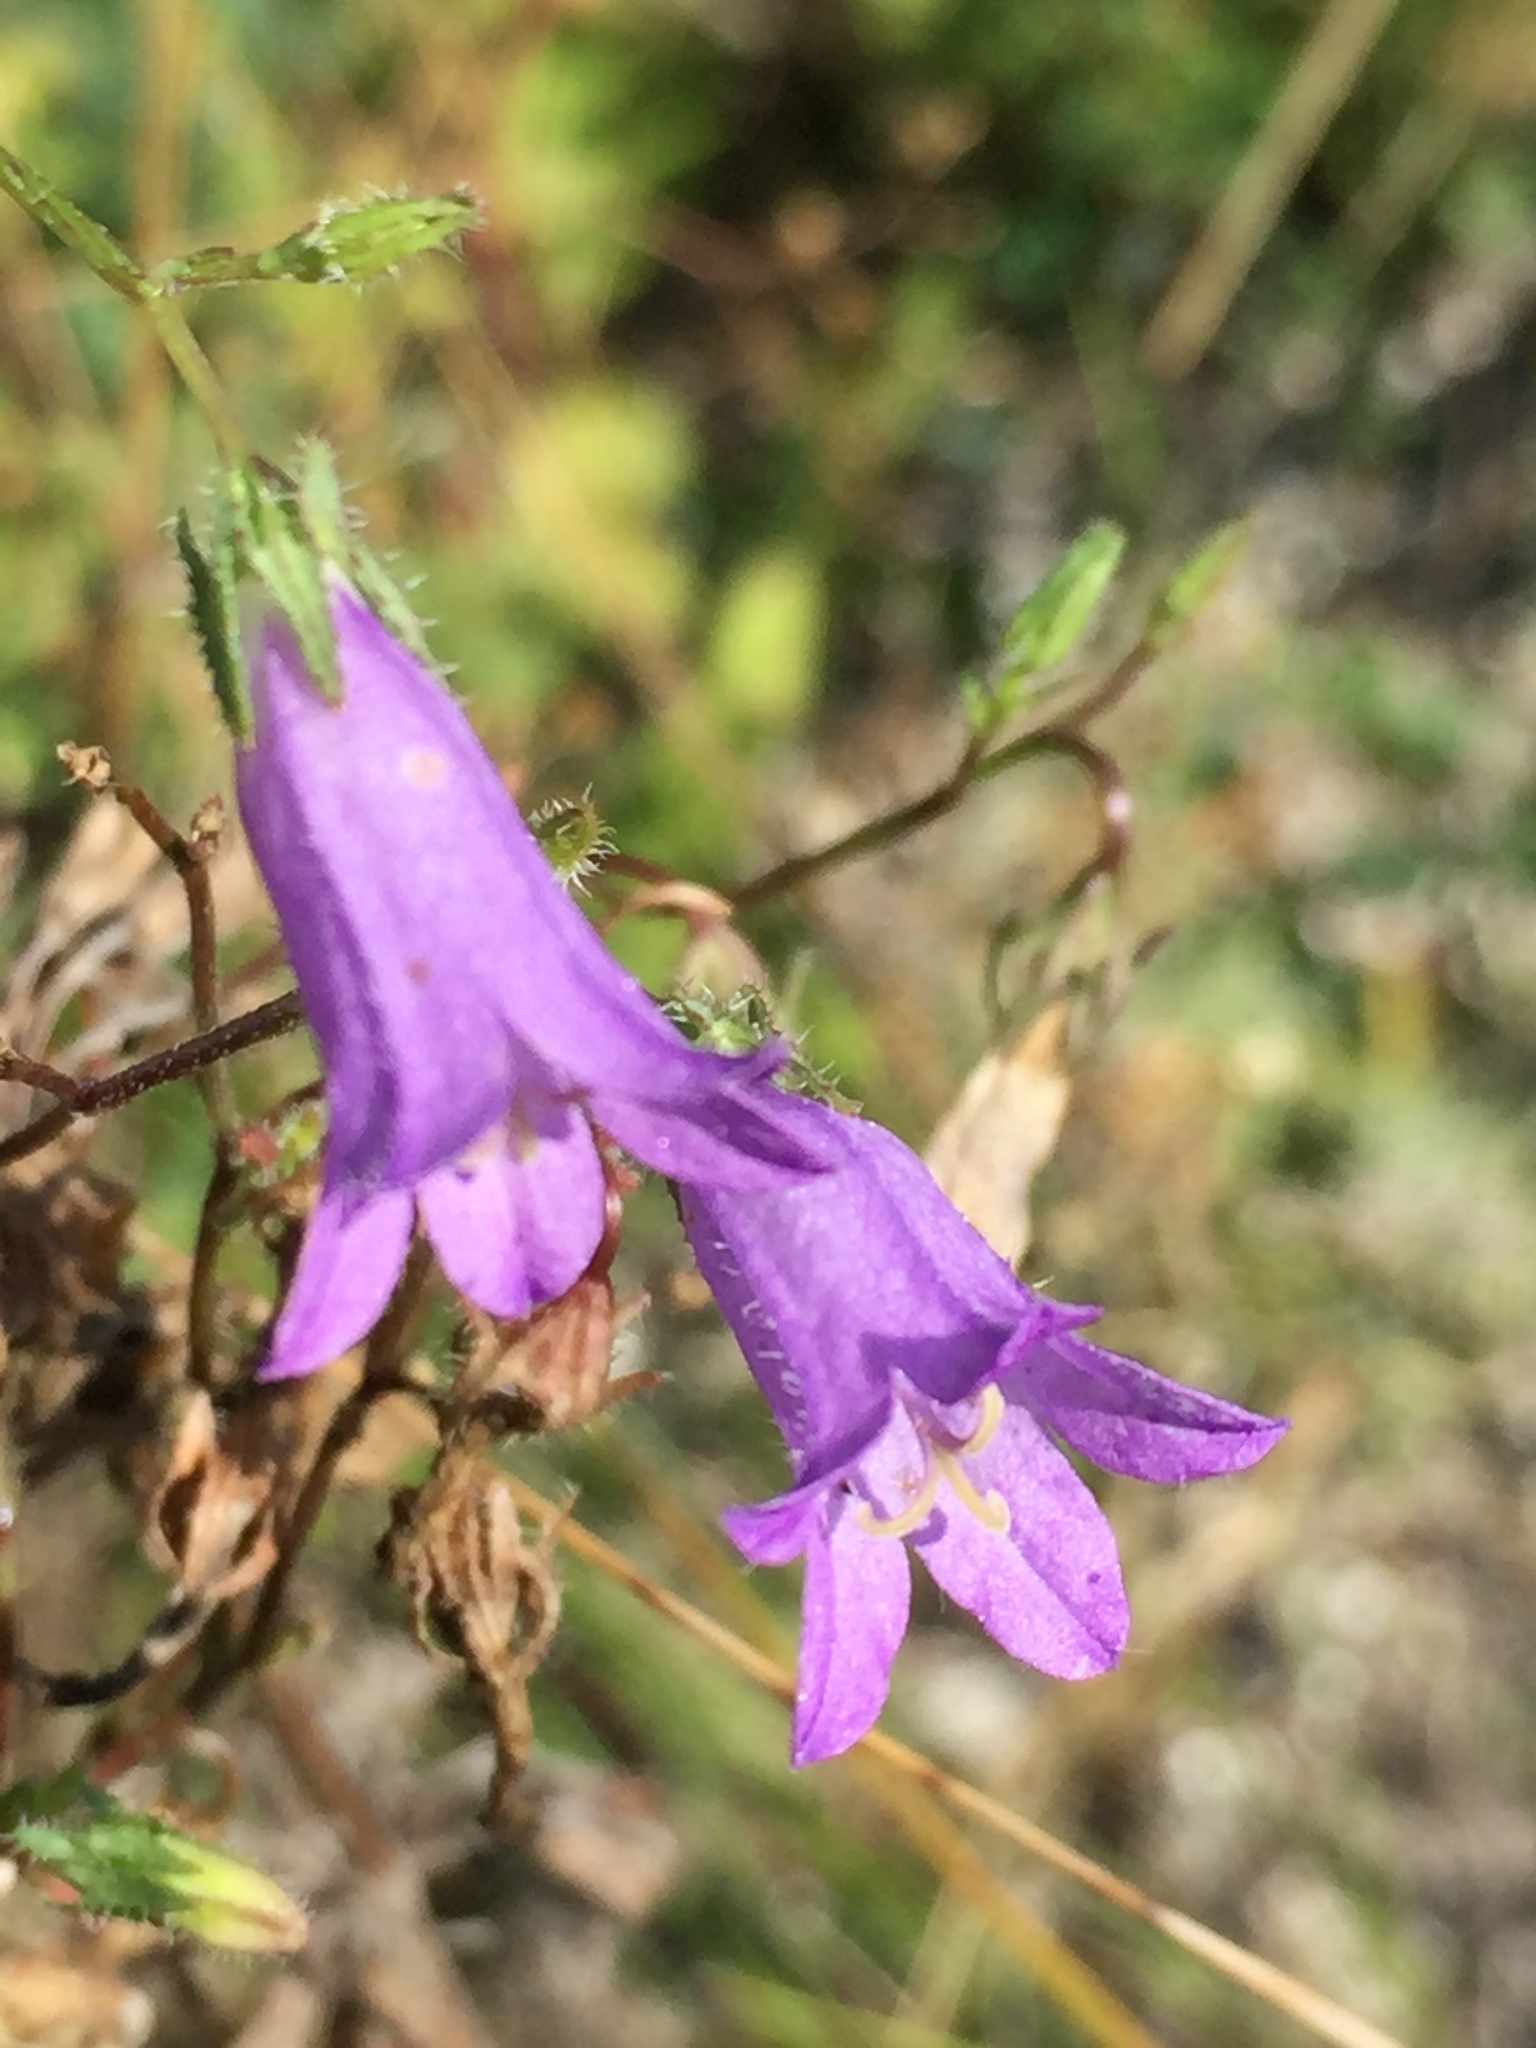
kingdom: Plantae
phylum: Tracheophyta
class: Magnoliopsida
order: Asterales
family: Campanulaceae
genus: Campanula
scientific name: Campanula sibirica
